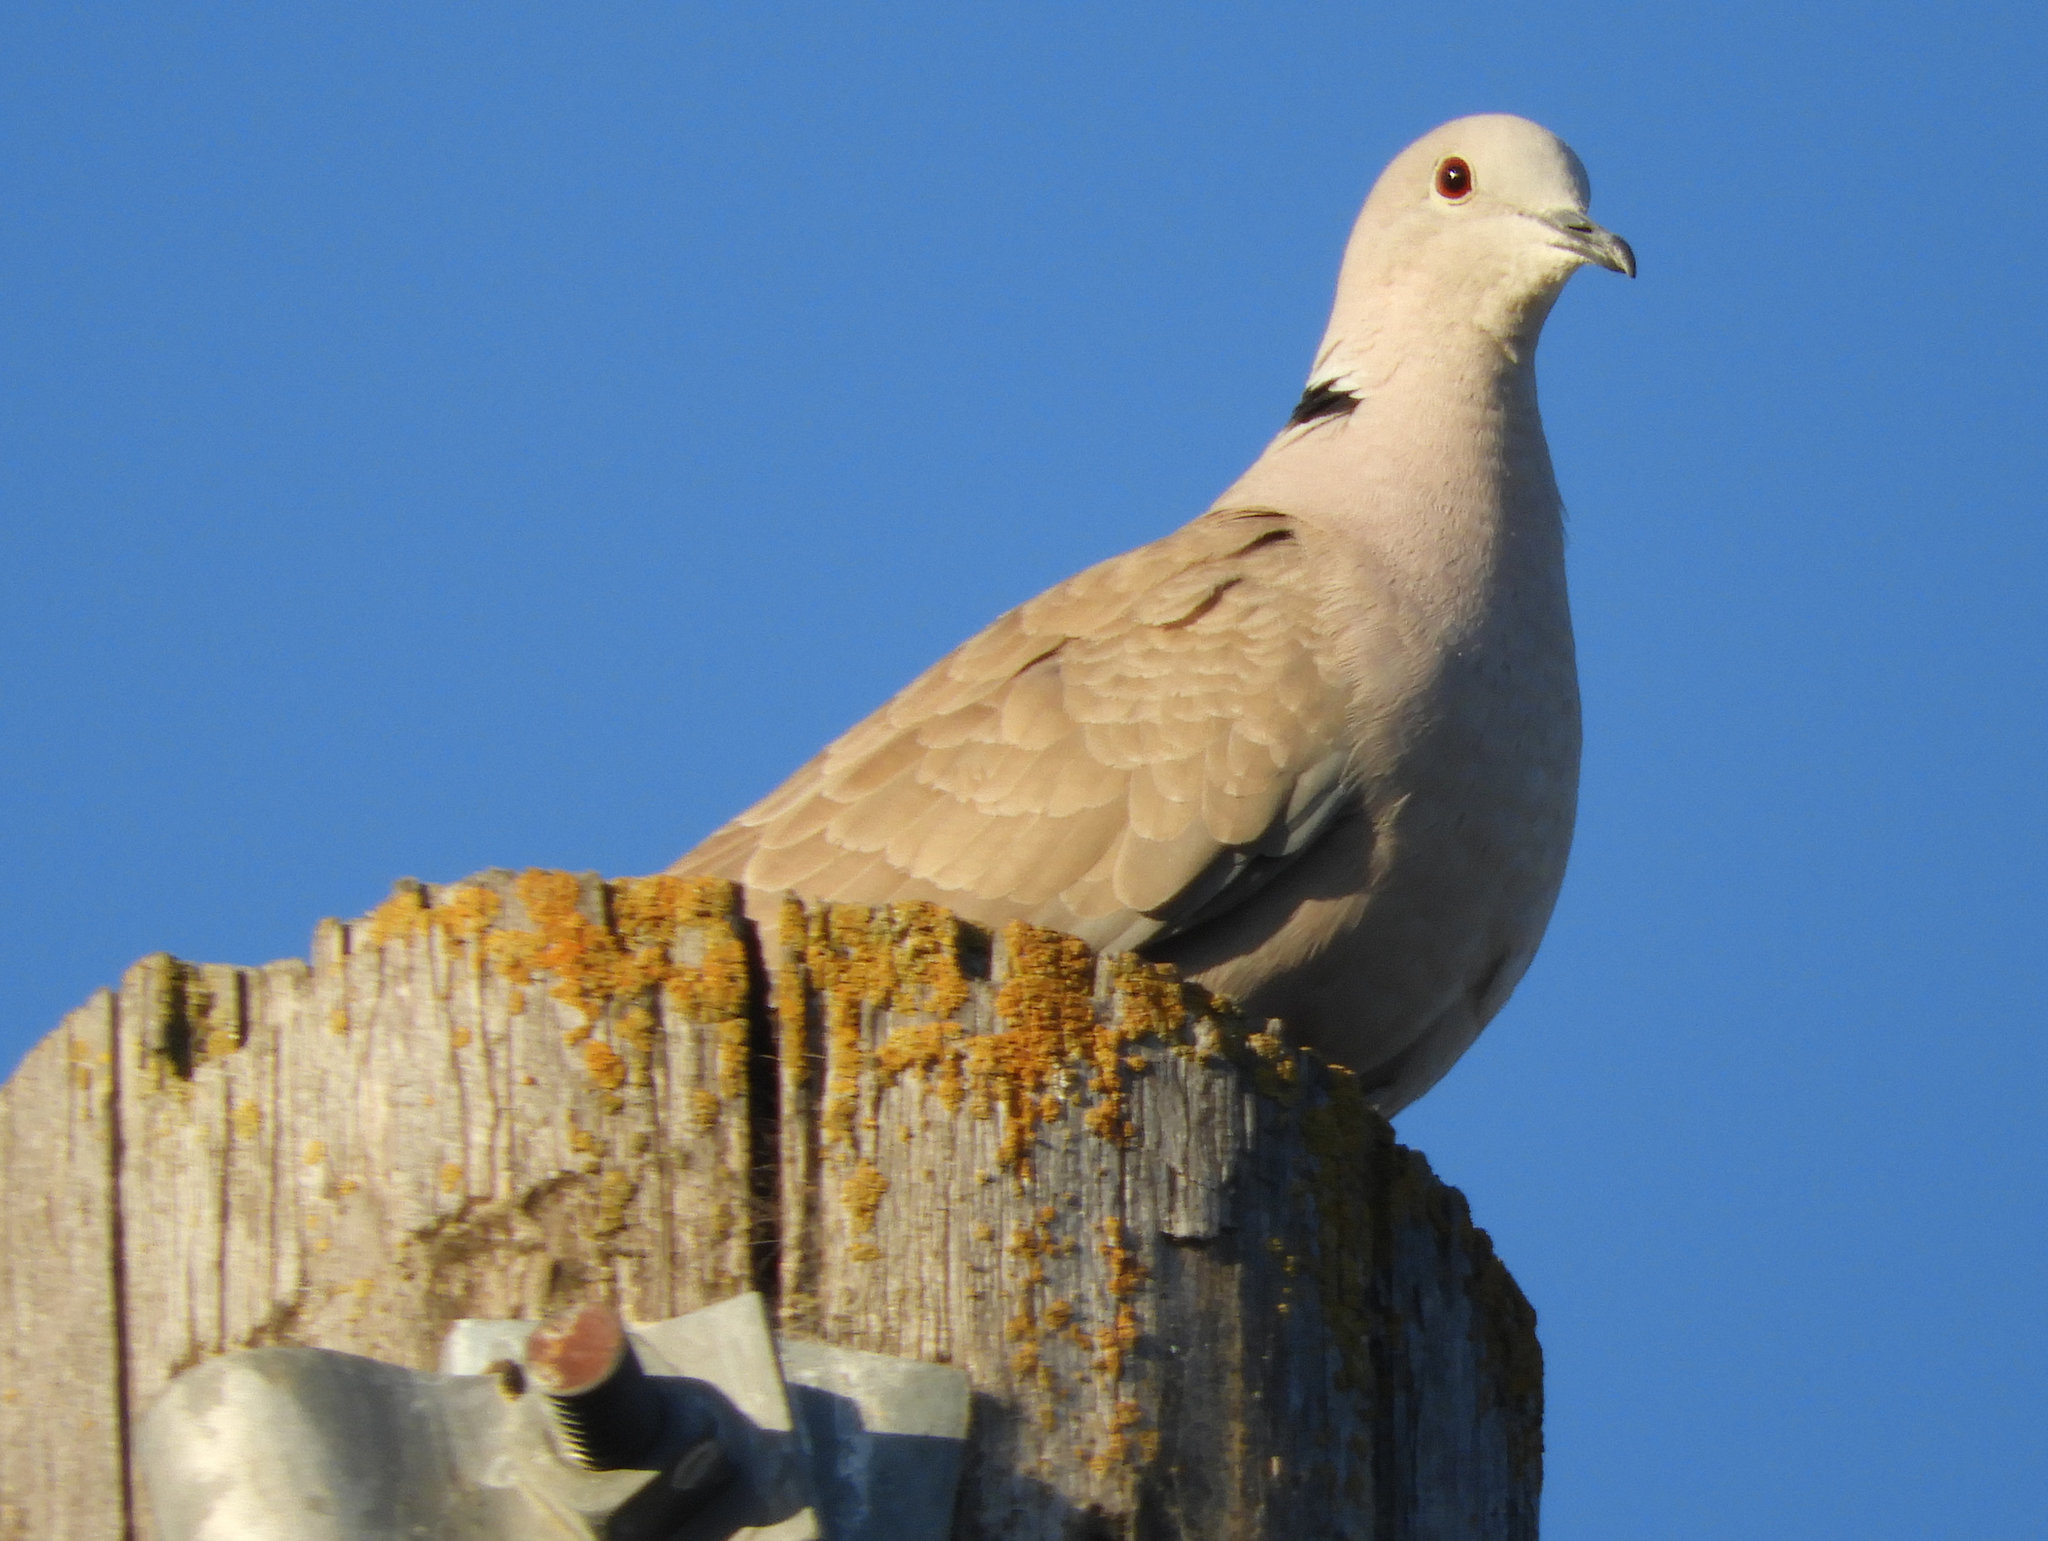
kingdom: Animalia
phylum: Chordata
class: Aves
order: Columbiformes
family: Columbidae
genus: Streptopelia
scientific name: Streptopelia decaocto
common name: Eurasian collared dove
